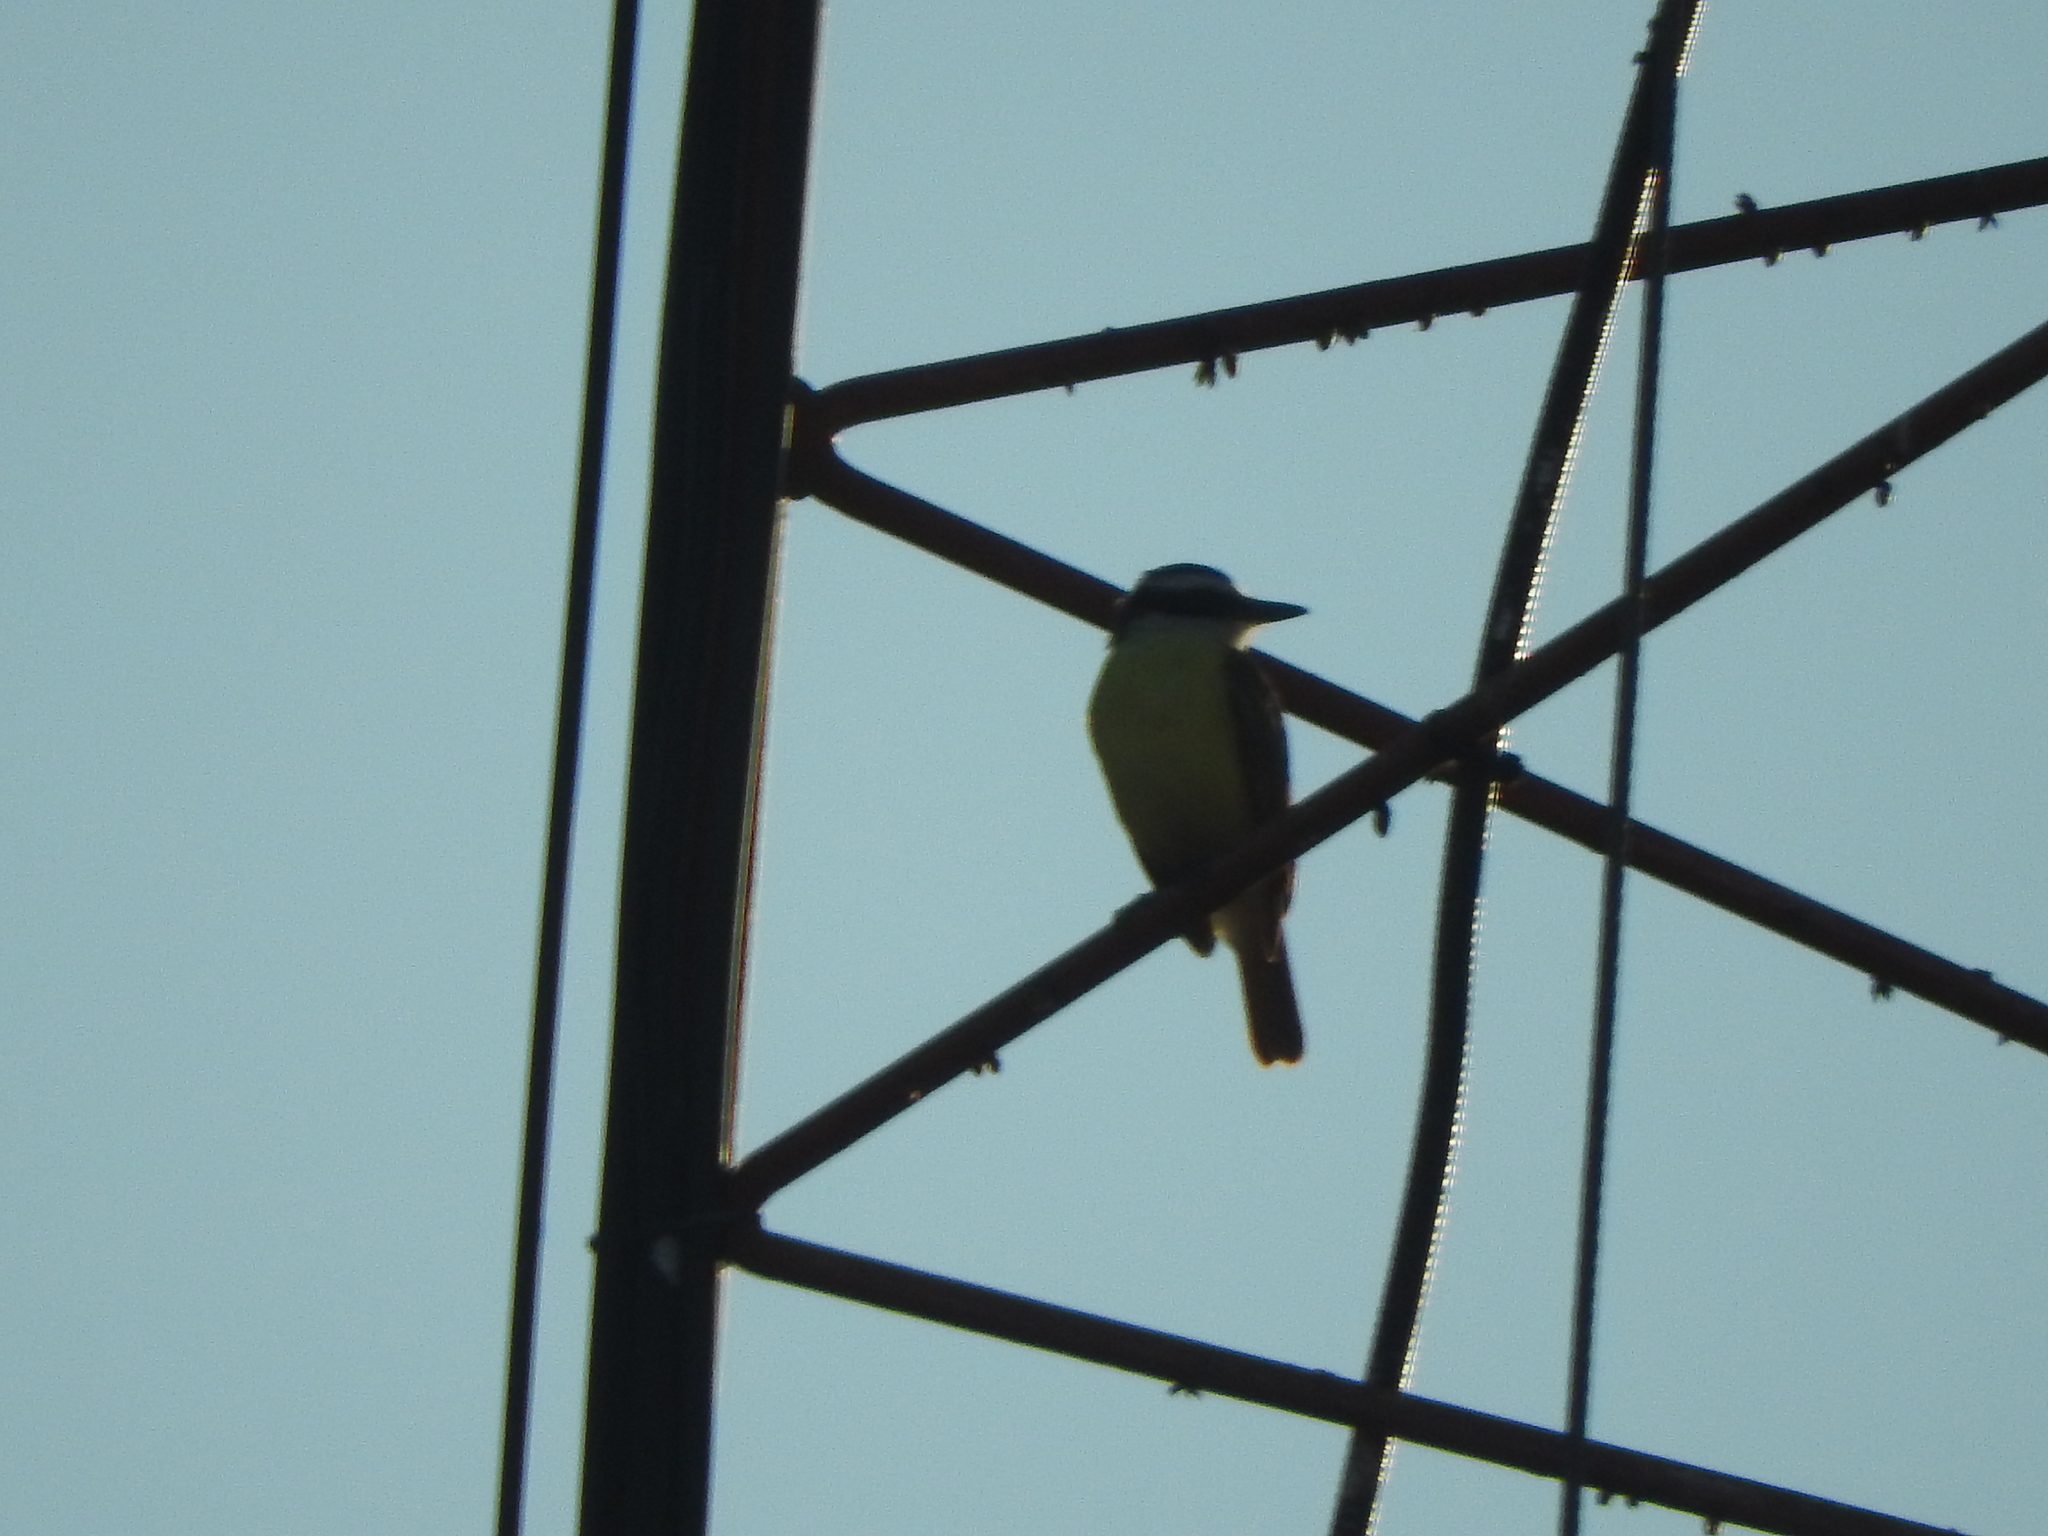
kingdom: Animalia
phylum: Chordata
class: Aves
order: Passeriformes
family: Tyrannidae
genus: Pitangus
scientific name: Pitangus sulphuratus
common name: Great kiskadee
